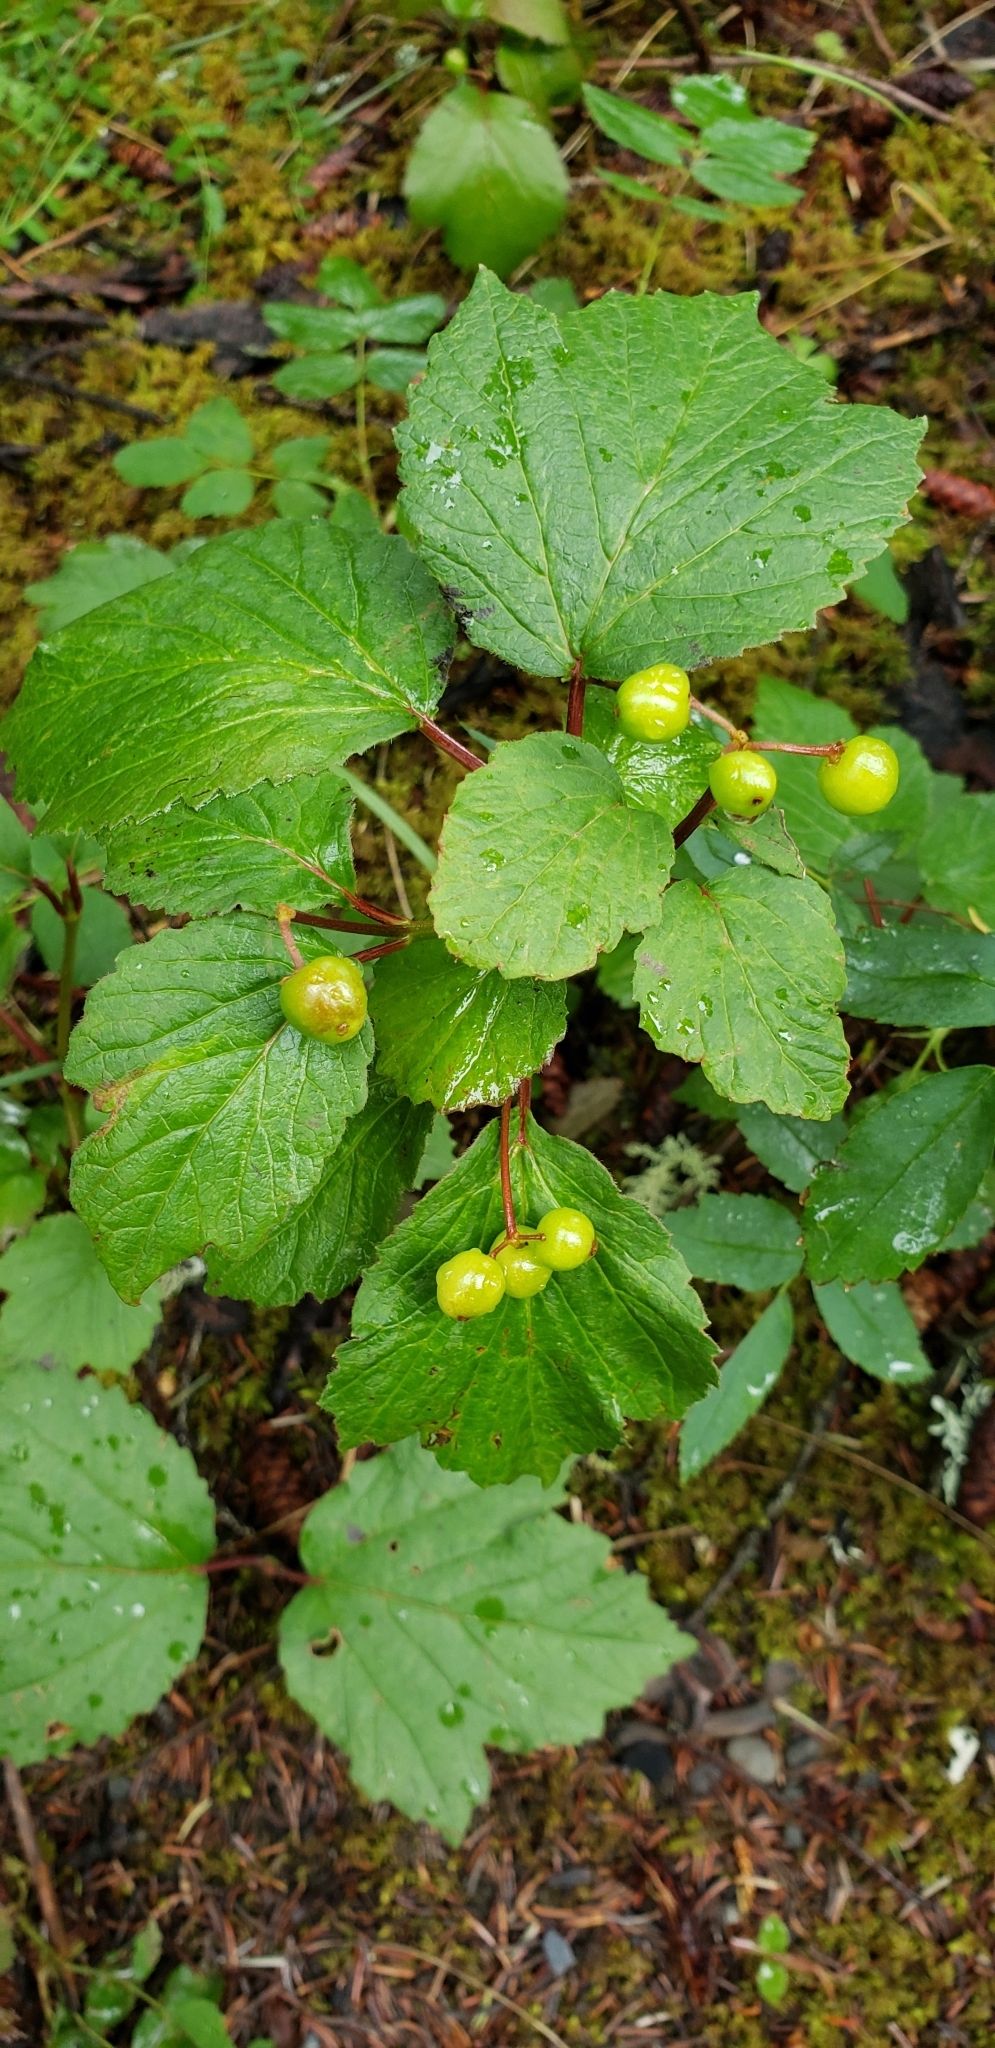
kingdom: Plantae
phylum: Tracheophyta
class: Magnoliopsida
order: Dipsacales
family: Viburnaceae
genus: Viburnum
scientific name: Viburnum edule
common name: Mooseberry
